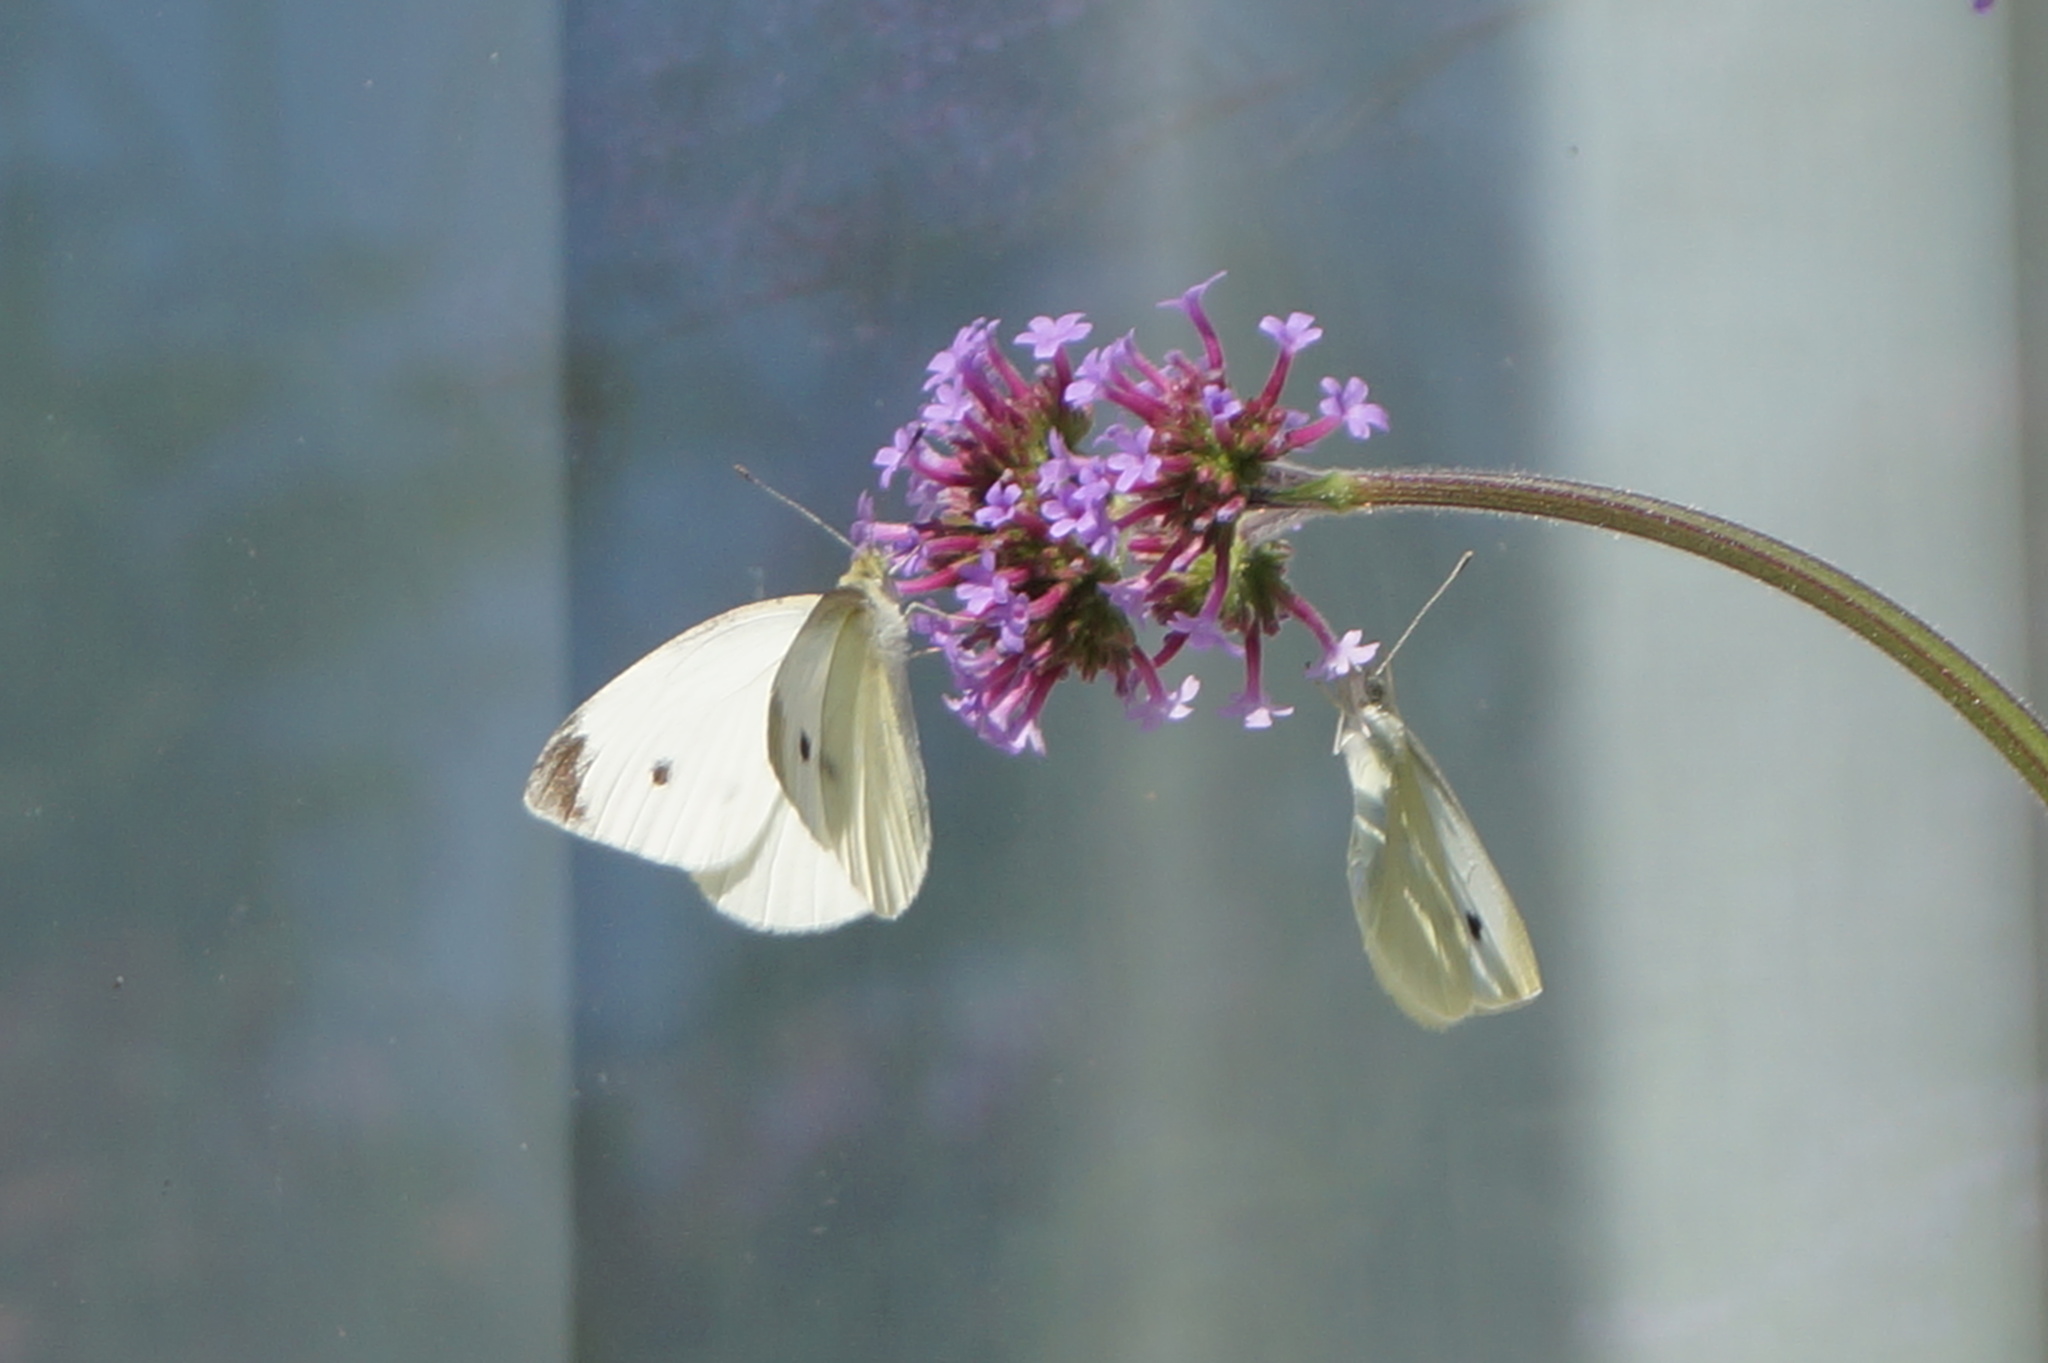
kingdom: Animalia
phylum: Arthropoda
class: Insecta
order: Lepidoptera
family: Pieridae
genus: Pieris
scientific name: Pieris rapae
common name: Small white
